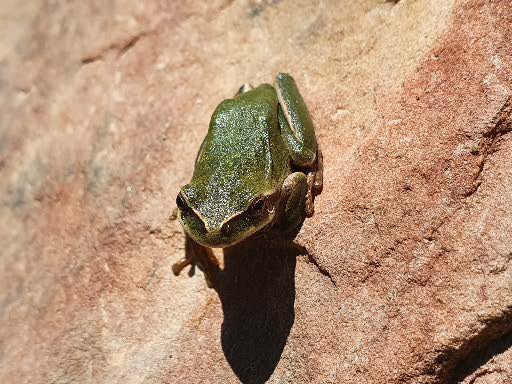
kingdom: Animalia
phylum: Chordata
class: Amphibia
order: Anura
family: Hylidae
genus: Hyla
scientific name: Hyla meridionalis
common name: Stripeless tree frog
